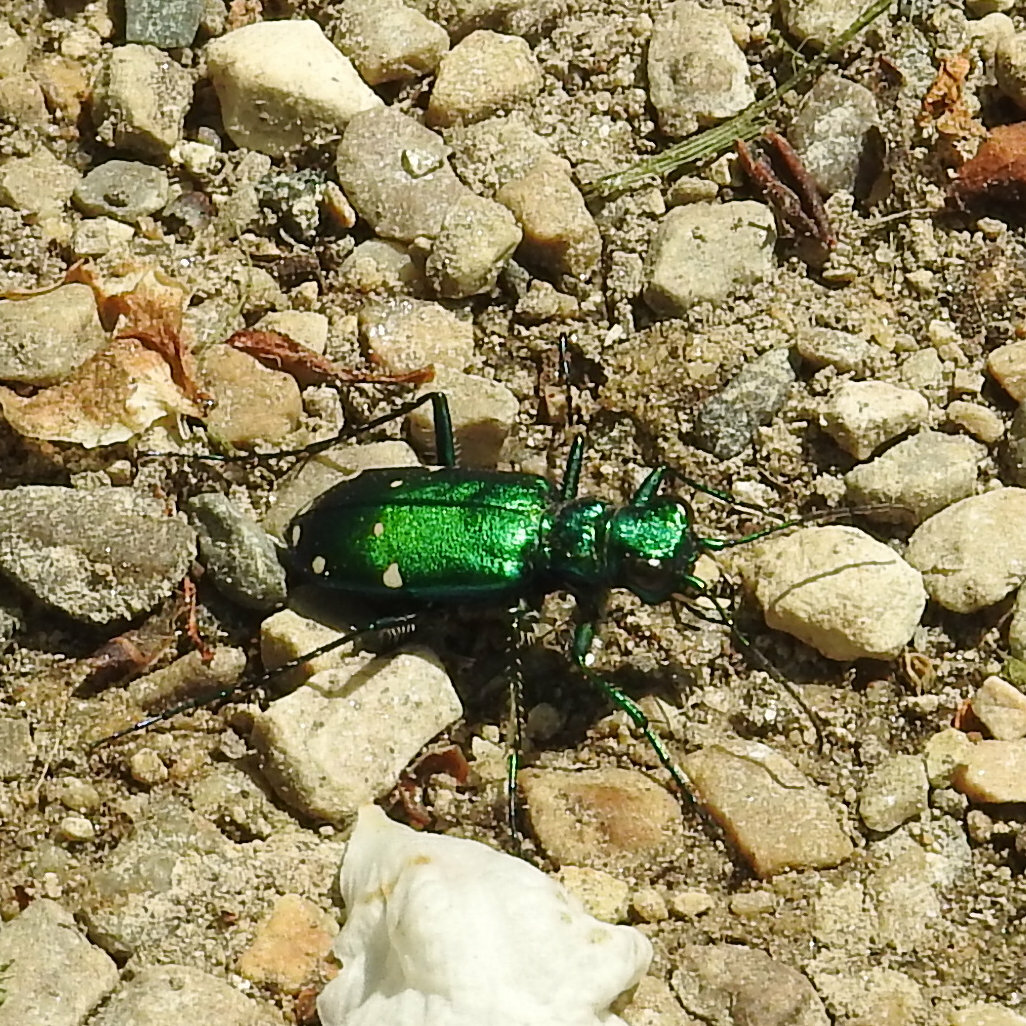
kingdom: Animalia
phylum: Arthropoda
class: Insecta
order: Coleoptera
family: Carabidae
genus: Cicindela
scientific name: Cicindela sexguttata
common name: Six-spotted tiger beetle
